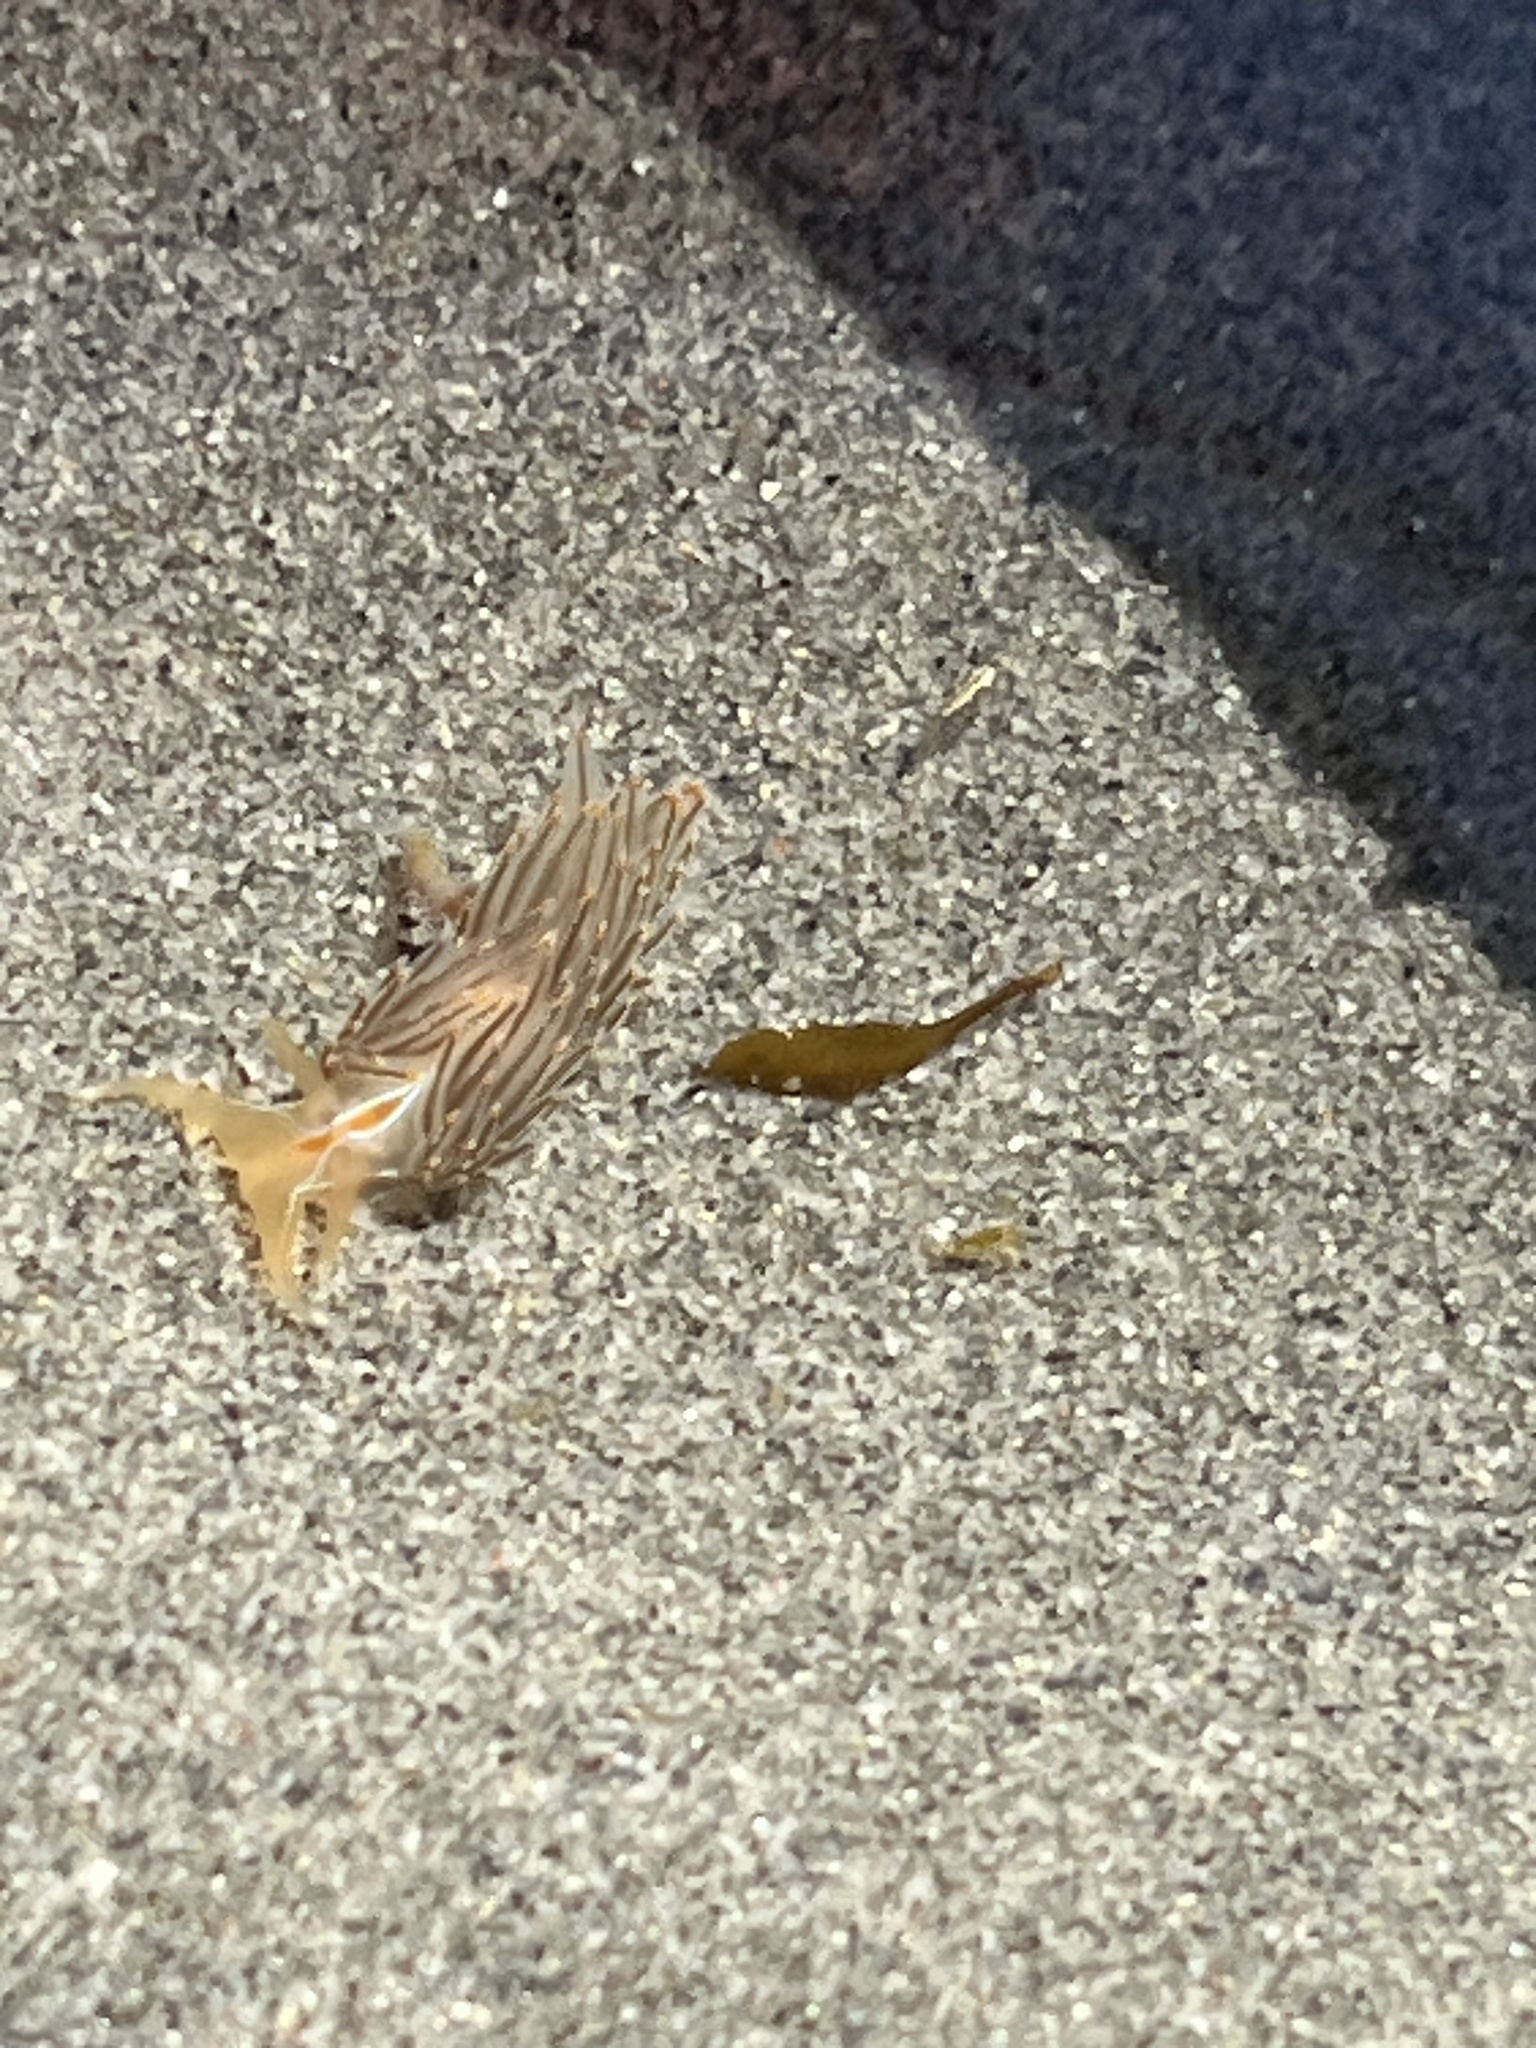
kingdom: Animalia
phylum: Mollusca
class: Gastropoda
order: Nudibranchia
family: Myrrhinidae
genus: Hermissenda
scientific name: Hermissenda crassicornis
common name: Hermissenda
